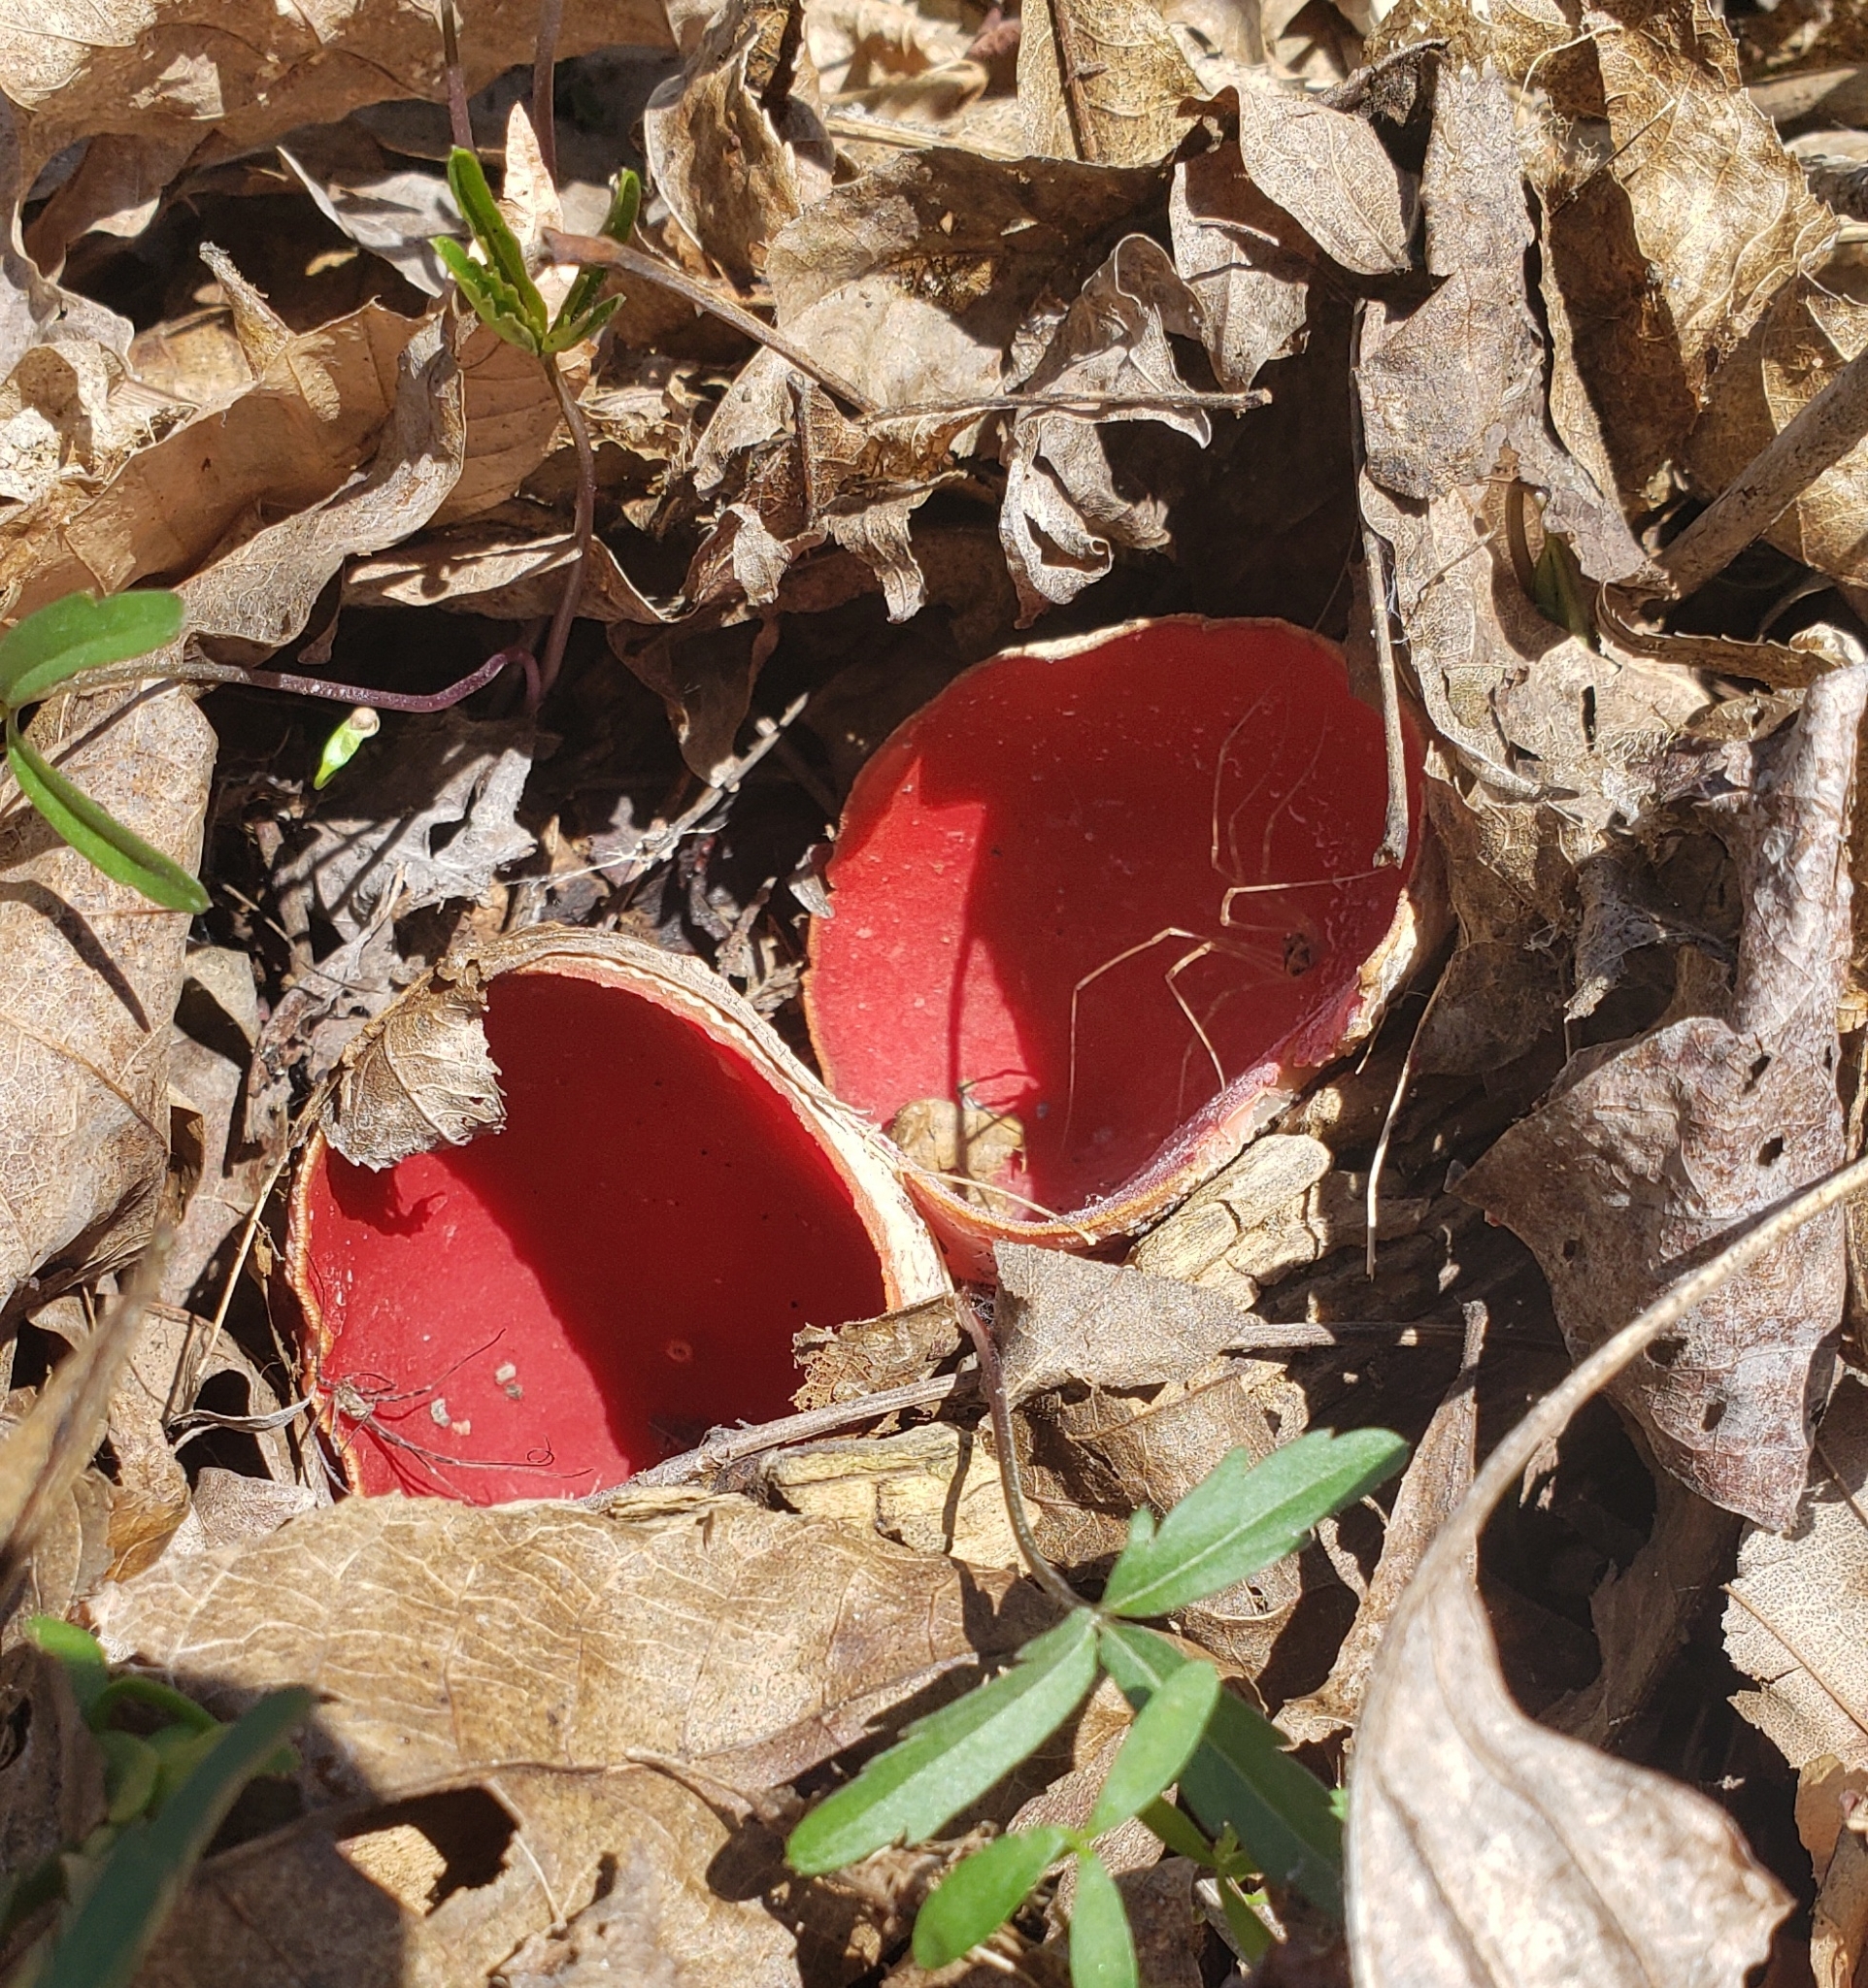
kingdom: Fungi
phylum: Ascomycota
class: Pezizomycetes
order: Pezizales
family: Sarcoscyphaceae
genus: Sarcoscypha
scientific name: Sarcoscypha austriaca
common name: Scarlet elfcup
